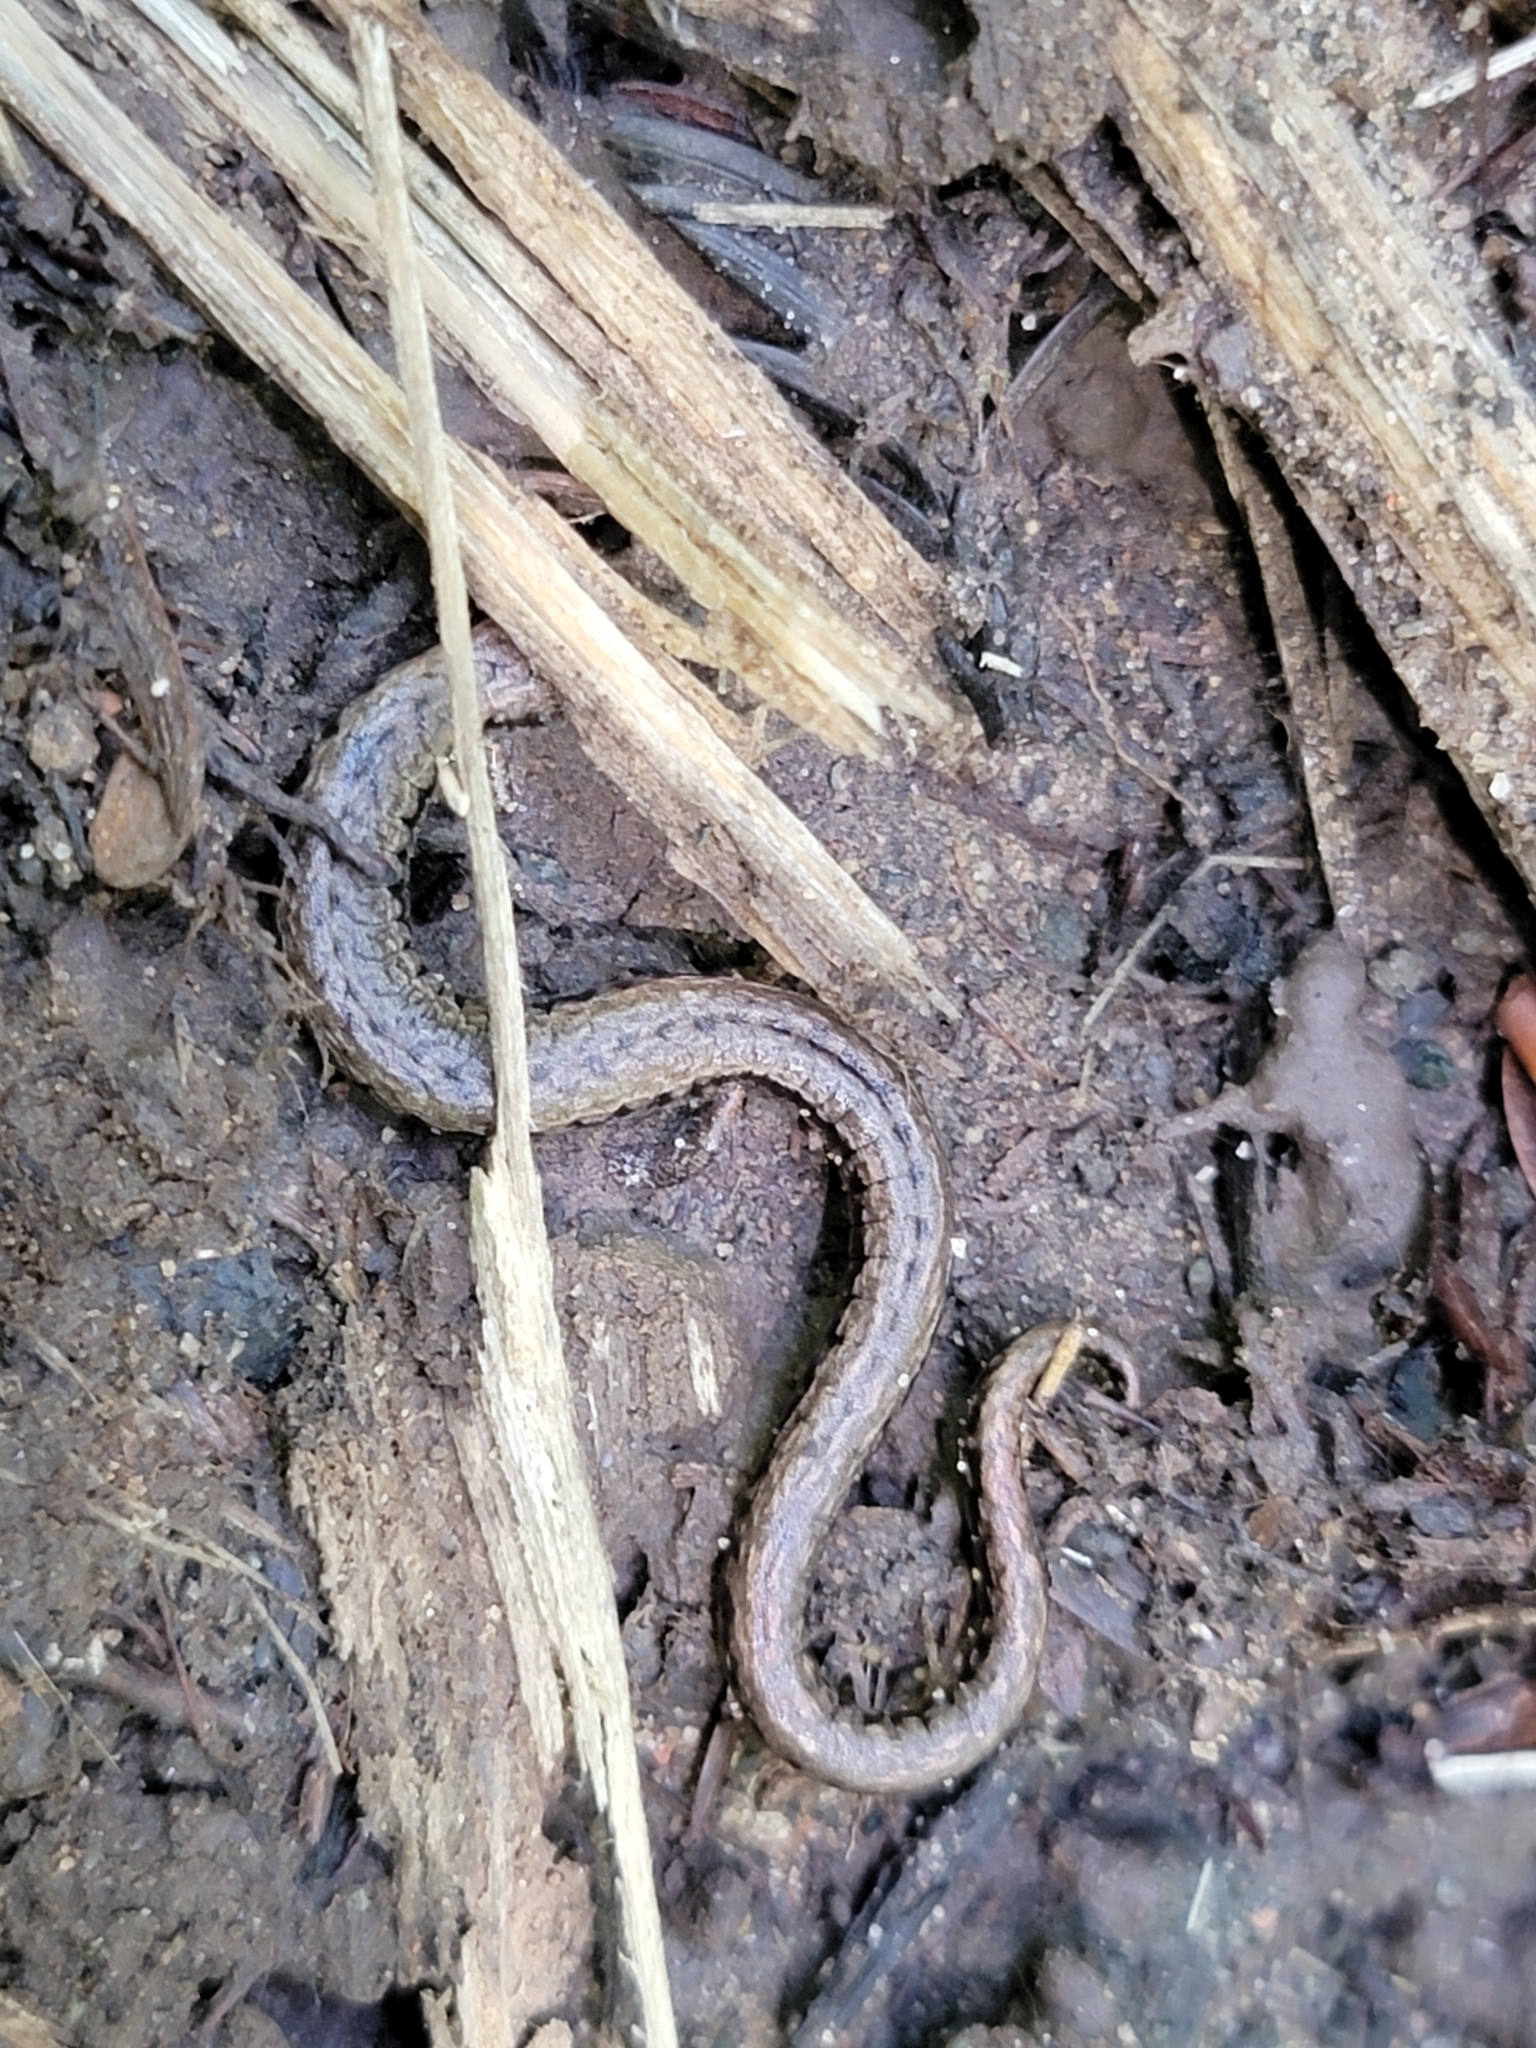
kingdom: Animalia
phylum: Chordata
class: Amphibia
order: Caudata
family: Plethodontidae
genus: Batrachoseps
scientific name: Batrachoseps attenuatus
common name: California slender salamander
